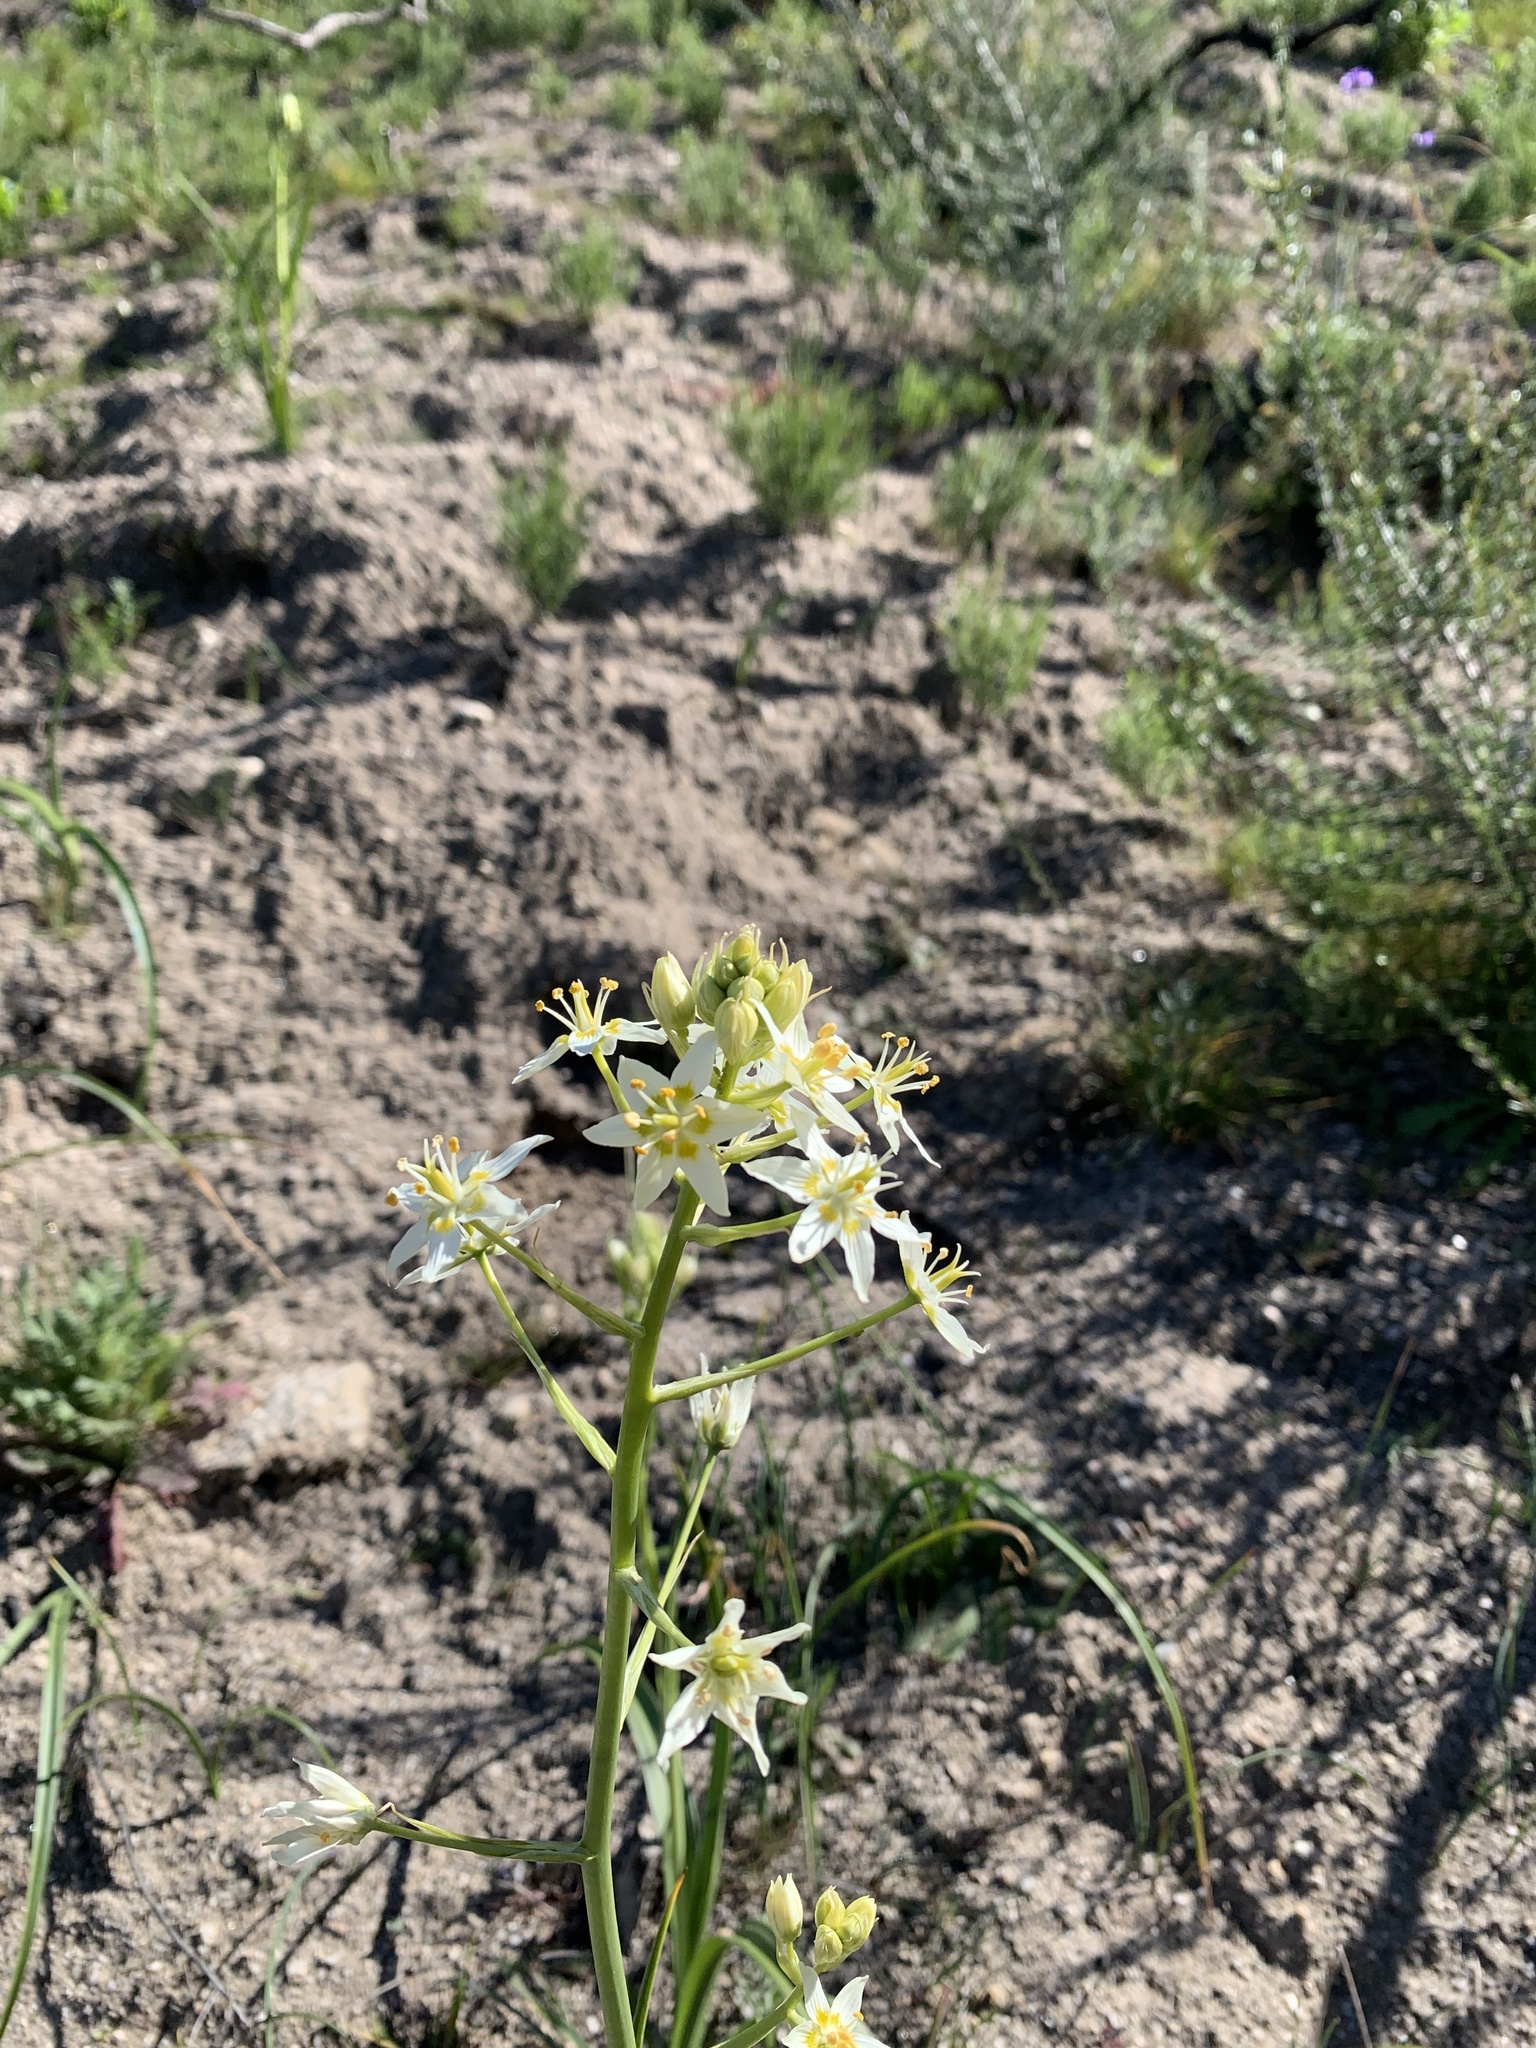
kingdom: Plantae
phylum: Tracheophyta
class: Liliopsida
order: Liliales
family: Melanthiaceae
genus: Toxicoscordion
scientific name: Toxicoscordion fremontii
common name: Fremont's death camas
